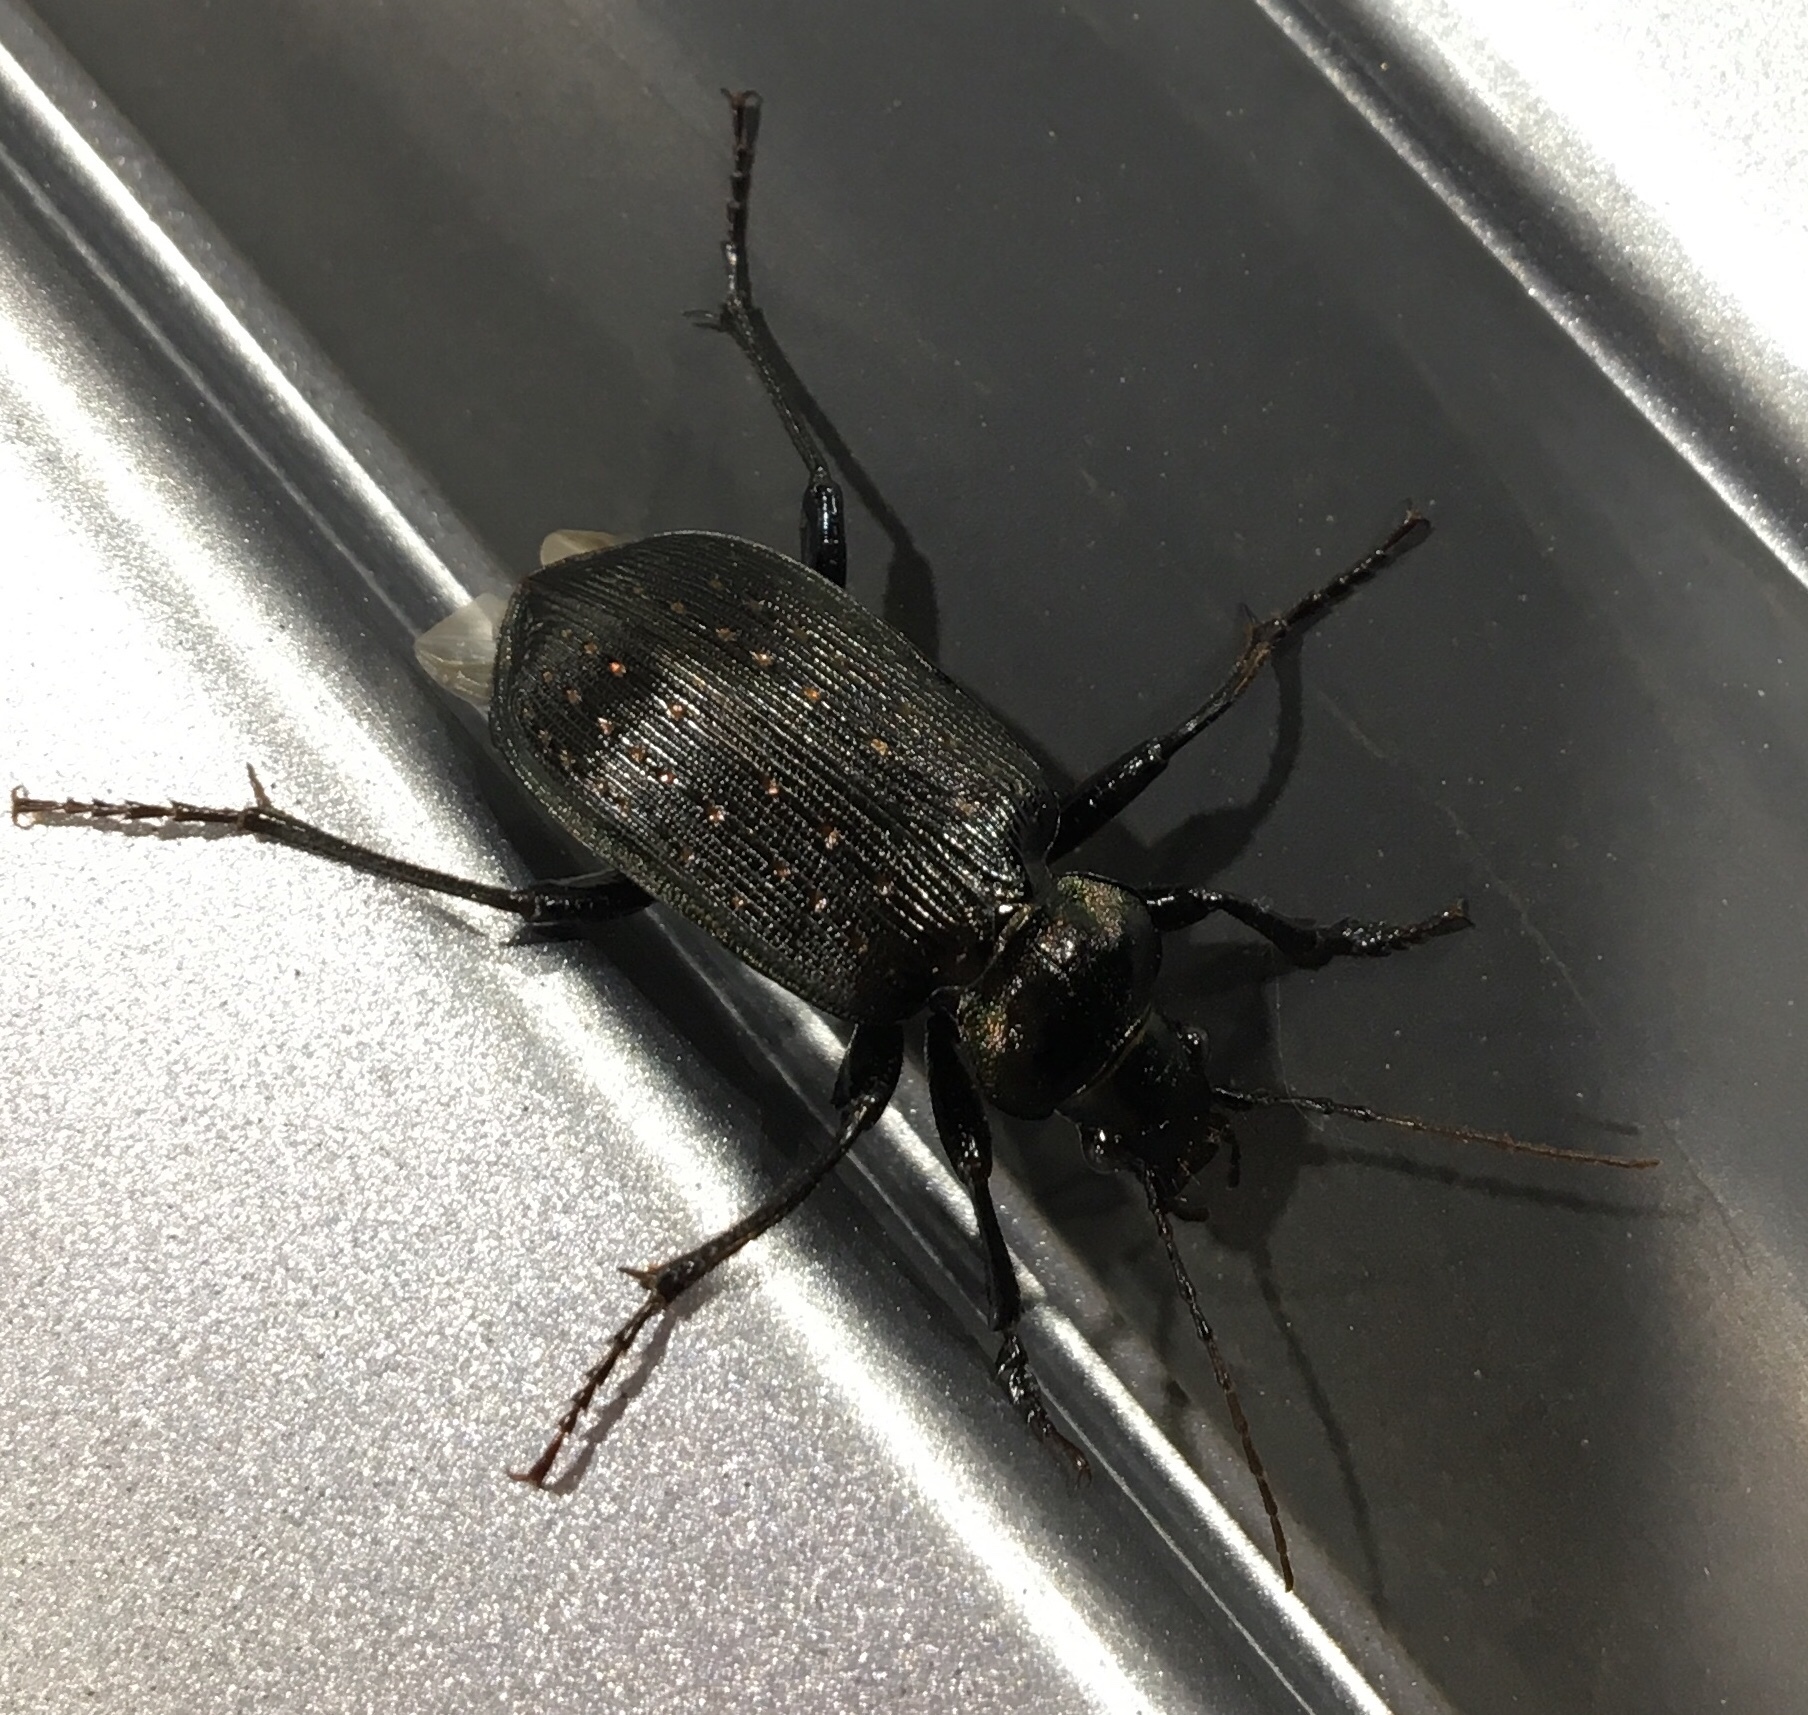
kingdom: Animalia
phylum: Arthropoda
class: Insecta
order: Coleoptera
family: Carabidae
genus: Calosoma
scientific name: Calosoma sayi
